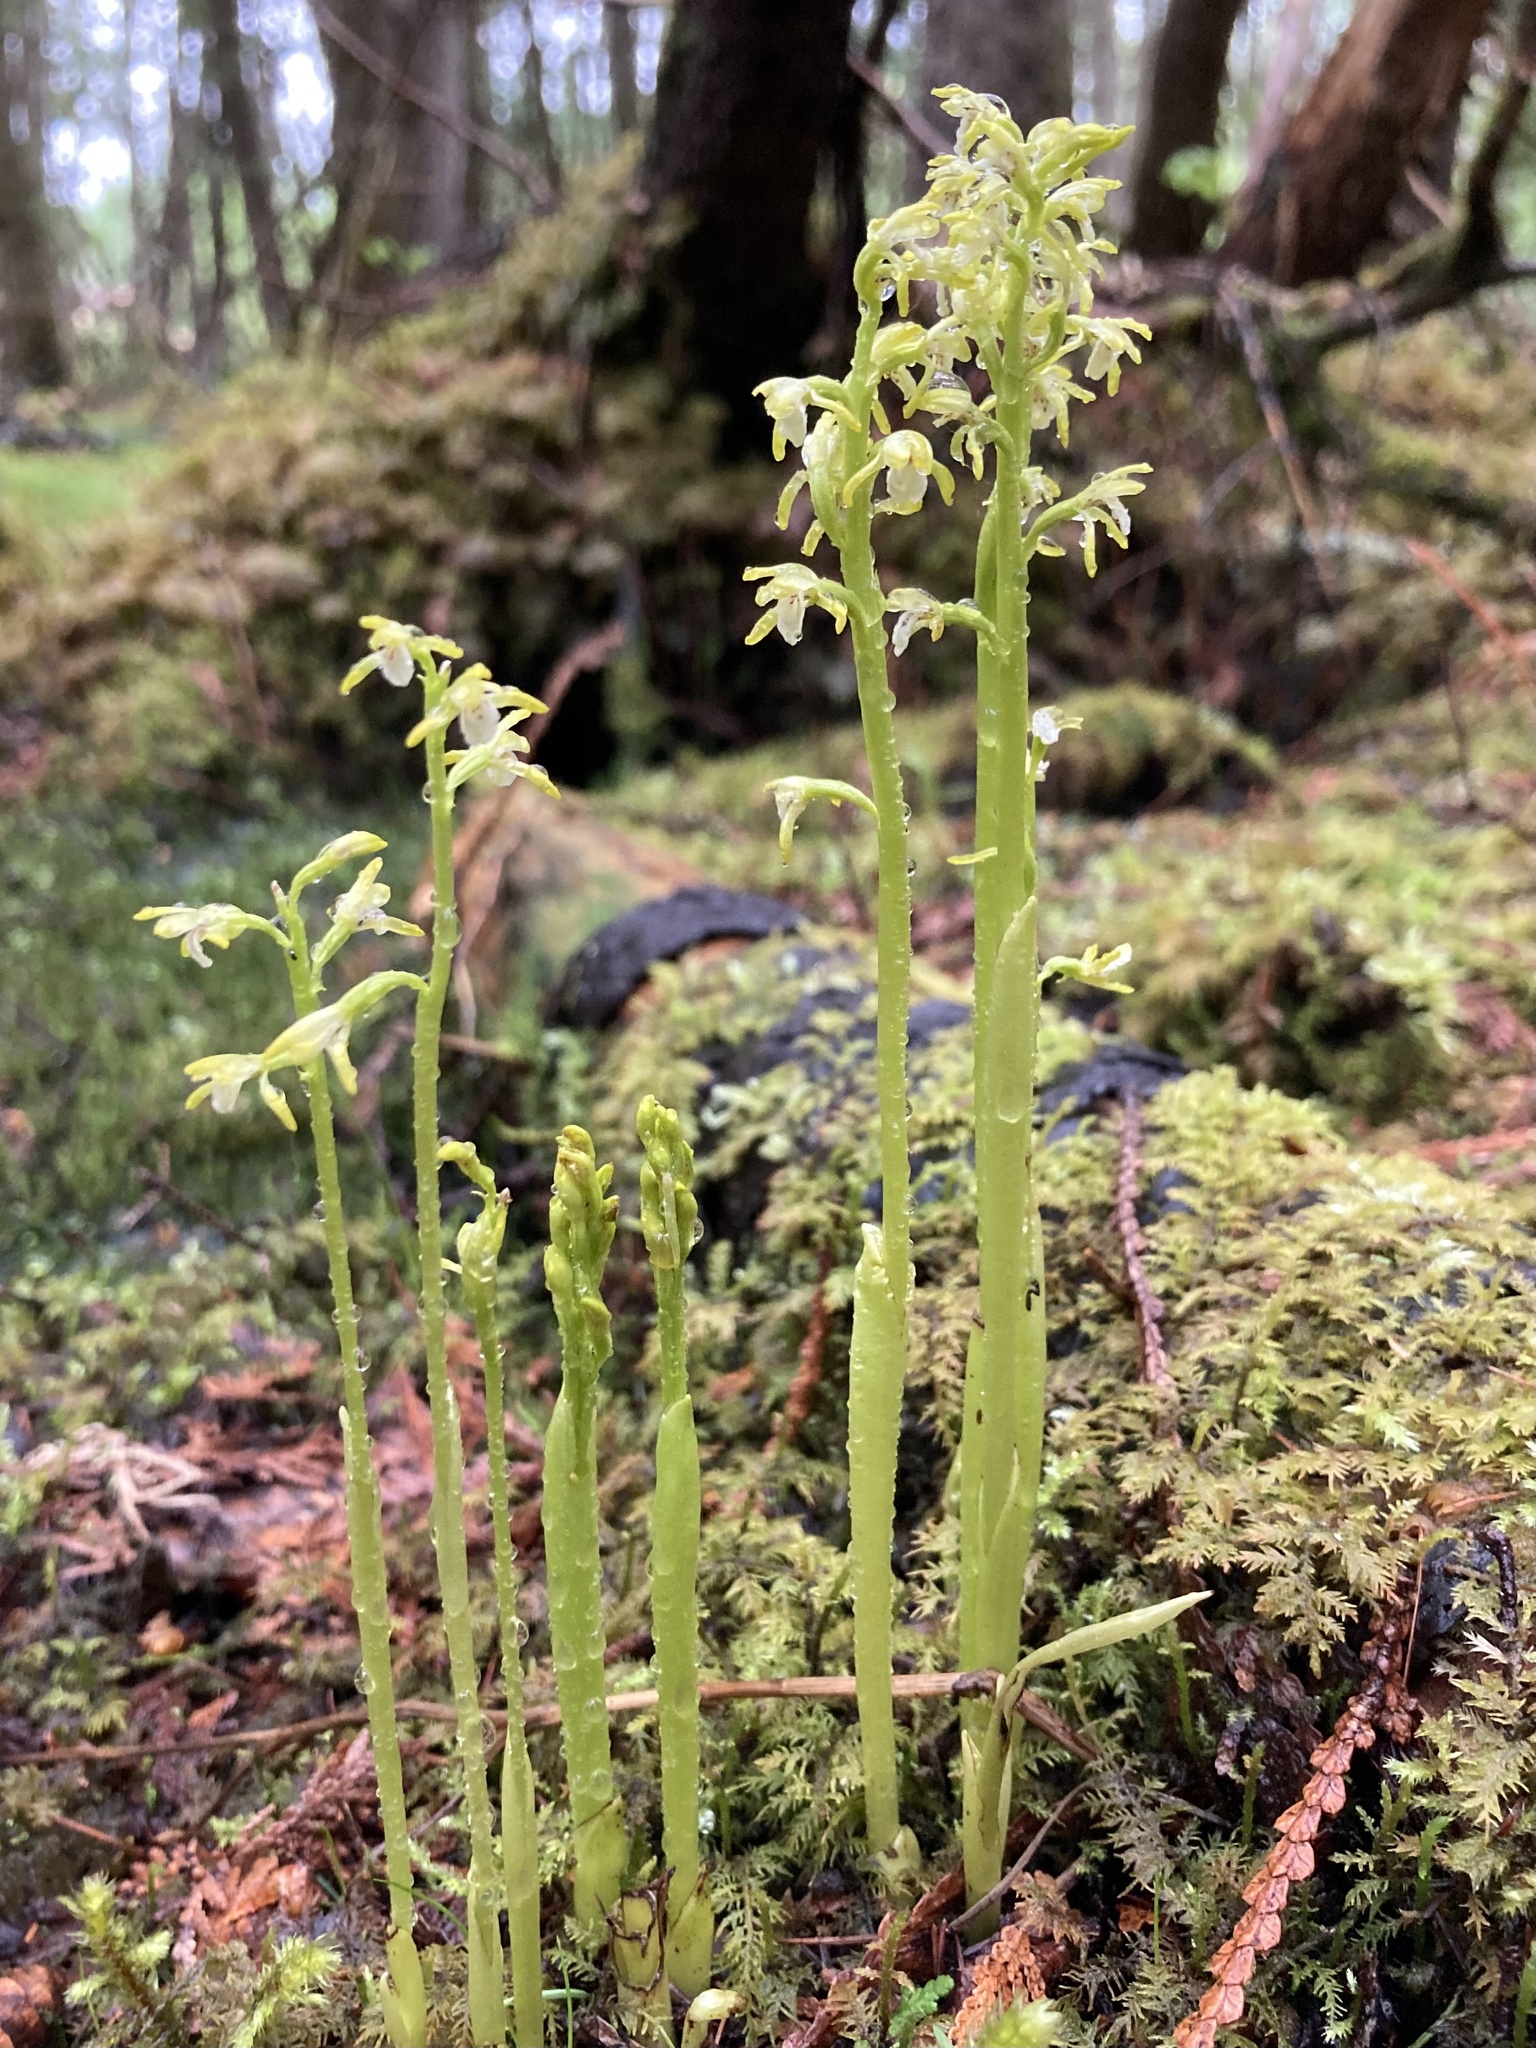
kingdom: Plantae
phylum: Tracheophyta
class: Liliopsida
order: Asparagales
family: Orchidaceae
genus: Corallorhiza
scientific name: Corallorhiza trifida
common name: Yellow coralroot
